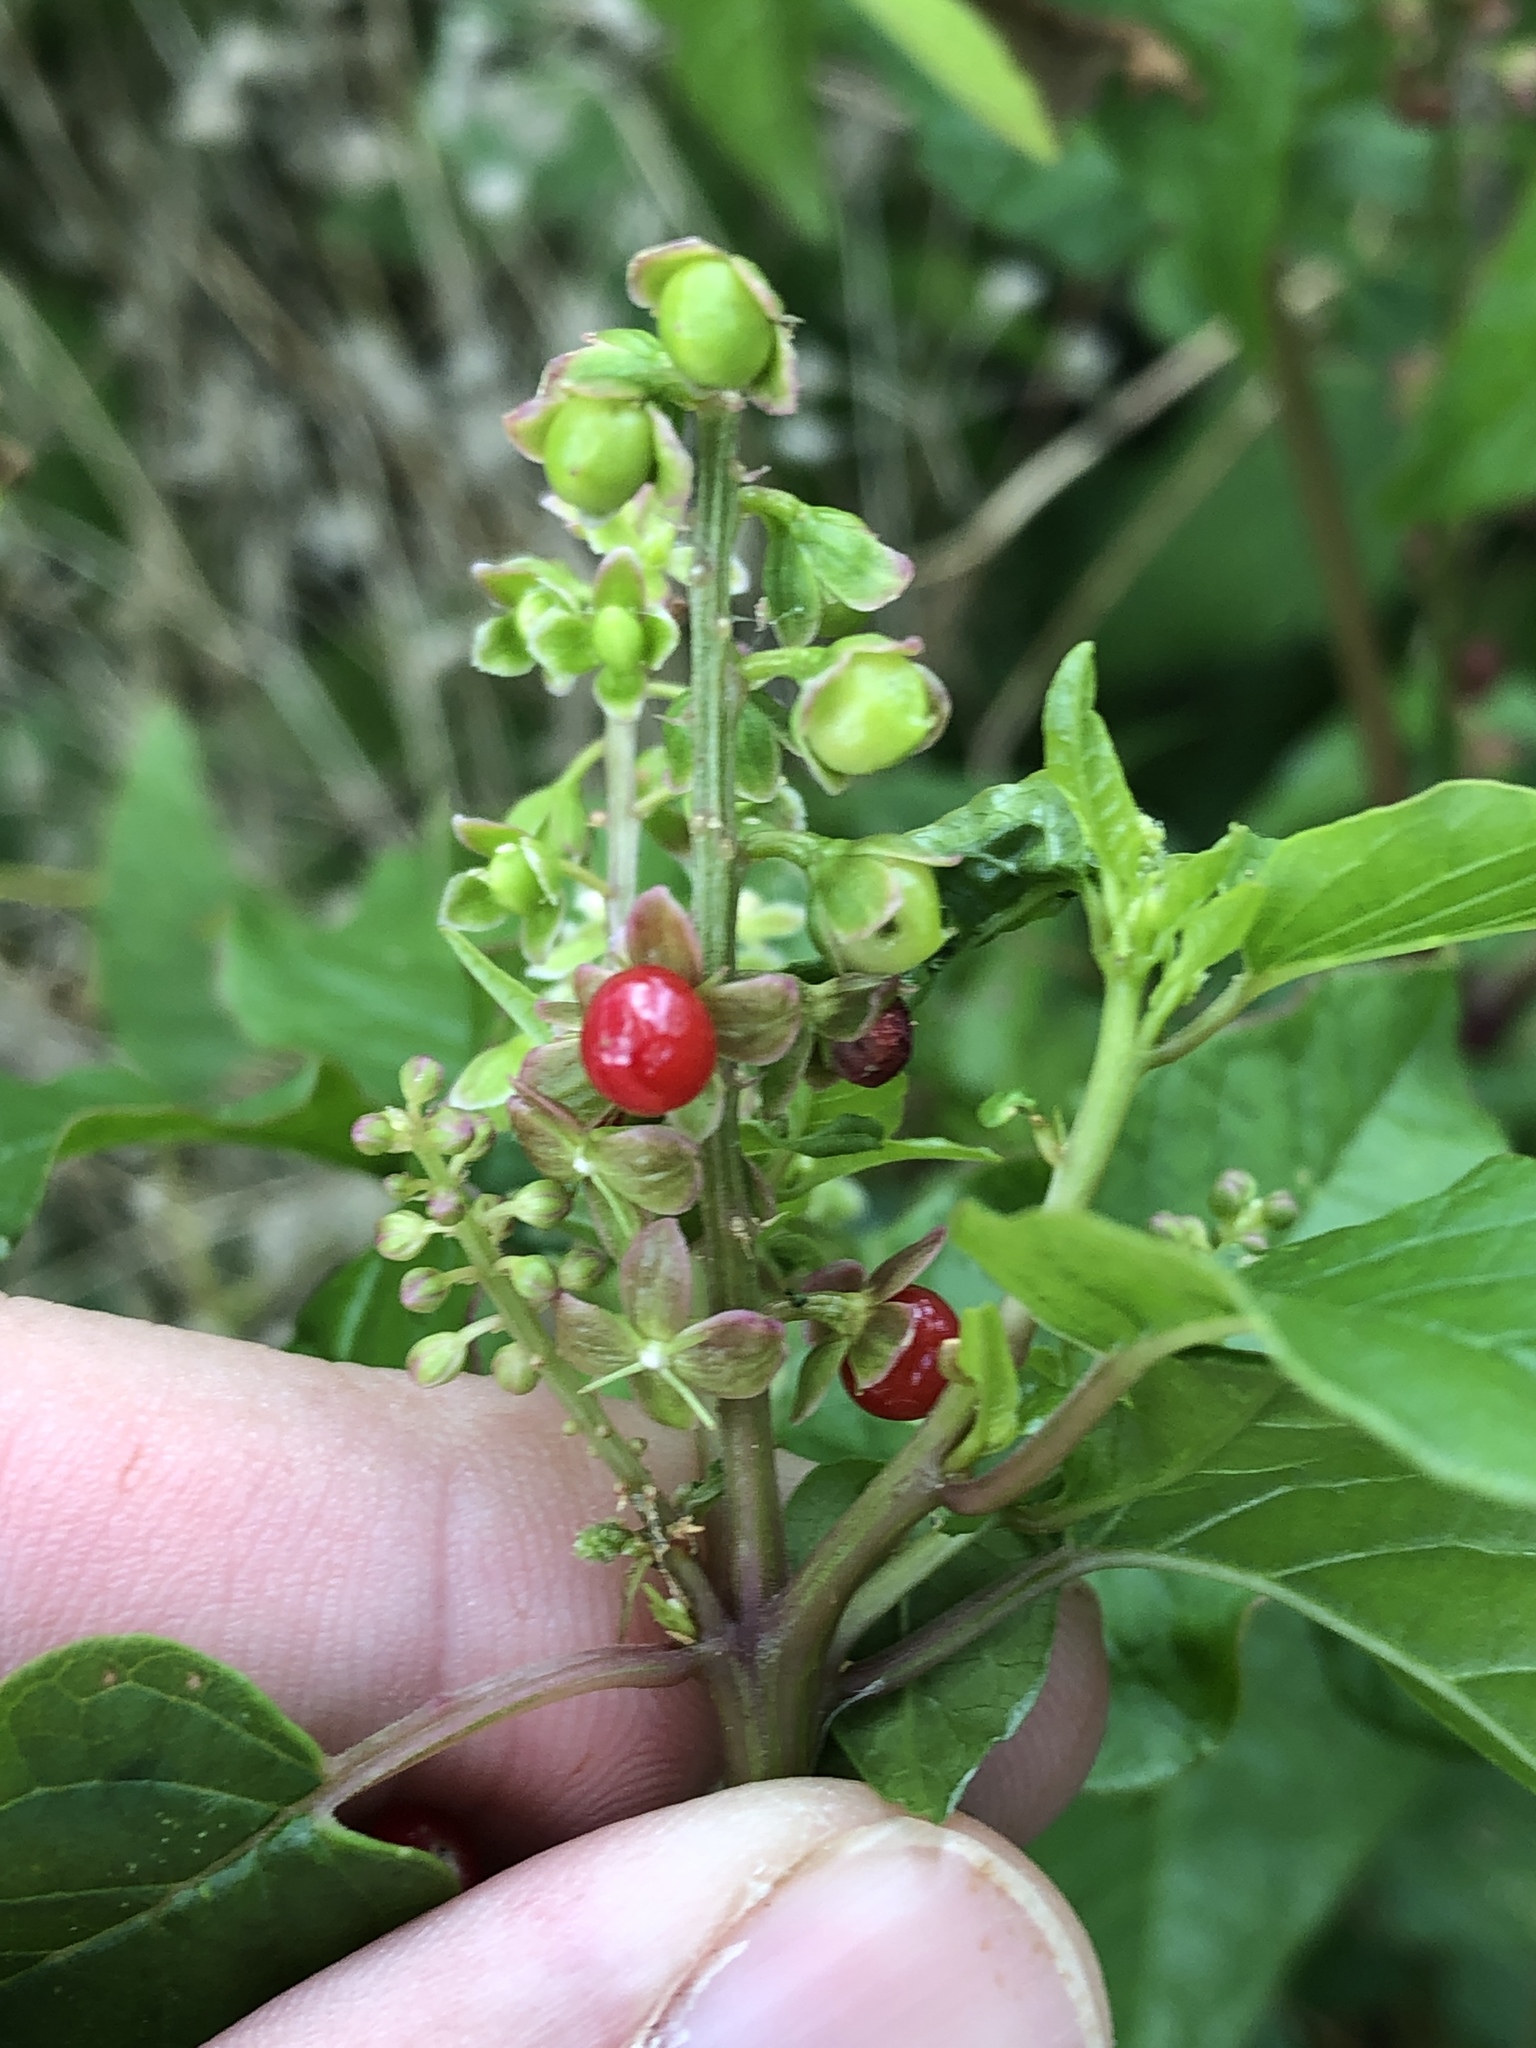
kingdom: Plantae
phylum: Tracheophyta
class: Magnoliopsida
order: Caryophyllales
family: Phytolaccaceae
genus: Rivina
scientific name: Rivina humilis
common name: Rougeplant
